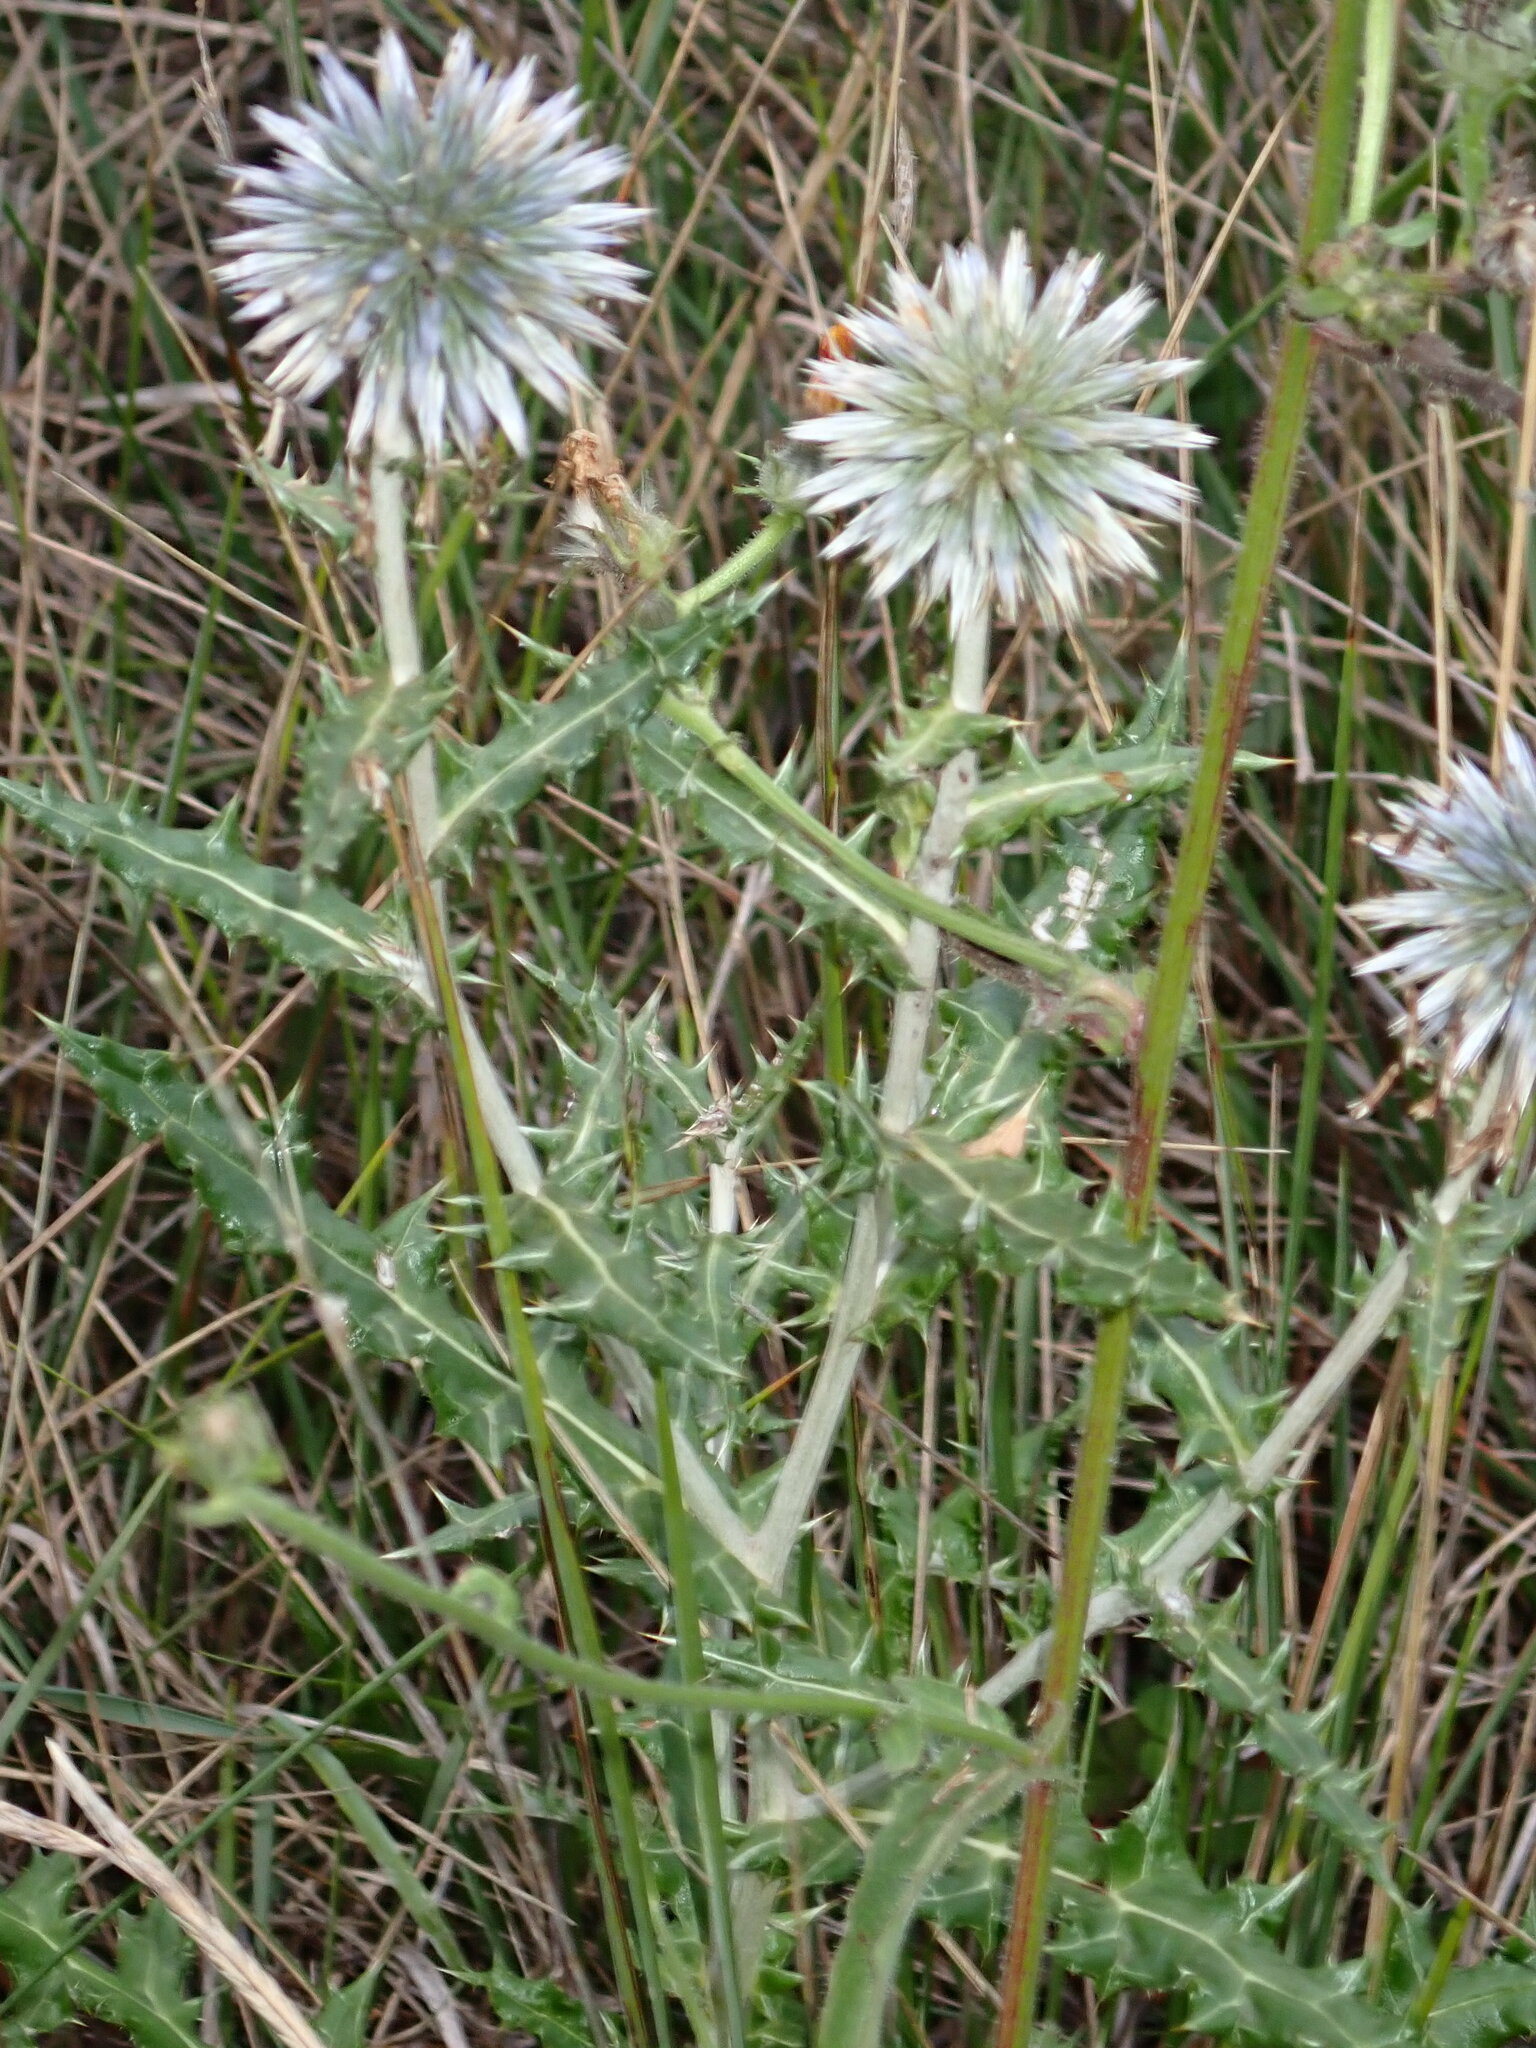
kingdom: Plantae
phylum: Tracheophyta
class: Magnoliopsida
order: Asterales
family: Asteraceae
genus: Echinops
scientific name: Echinops ritro
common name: Globe thistle
